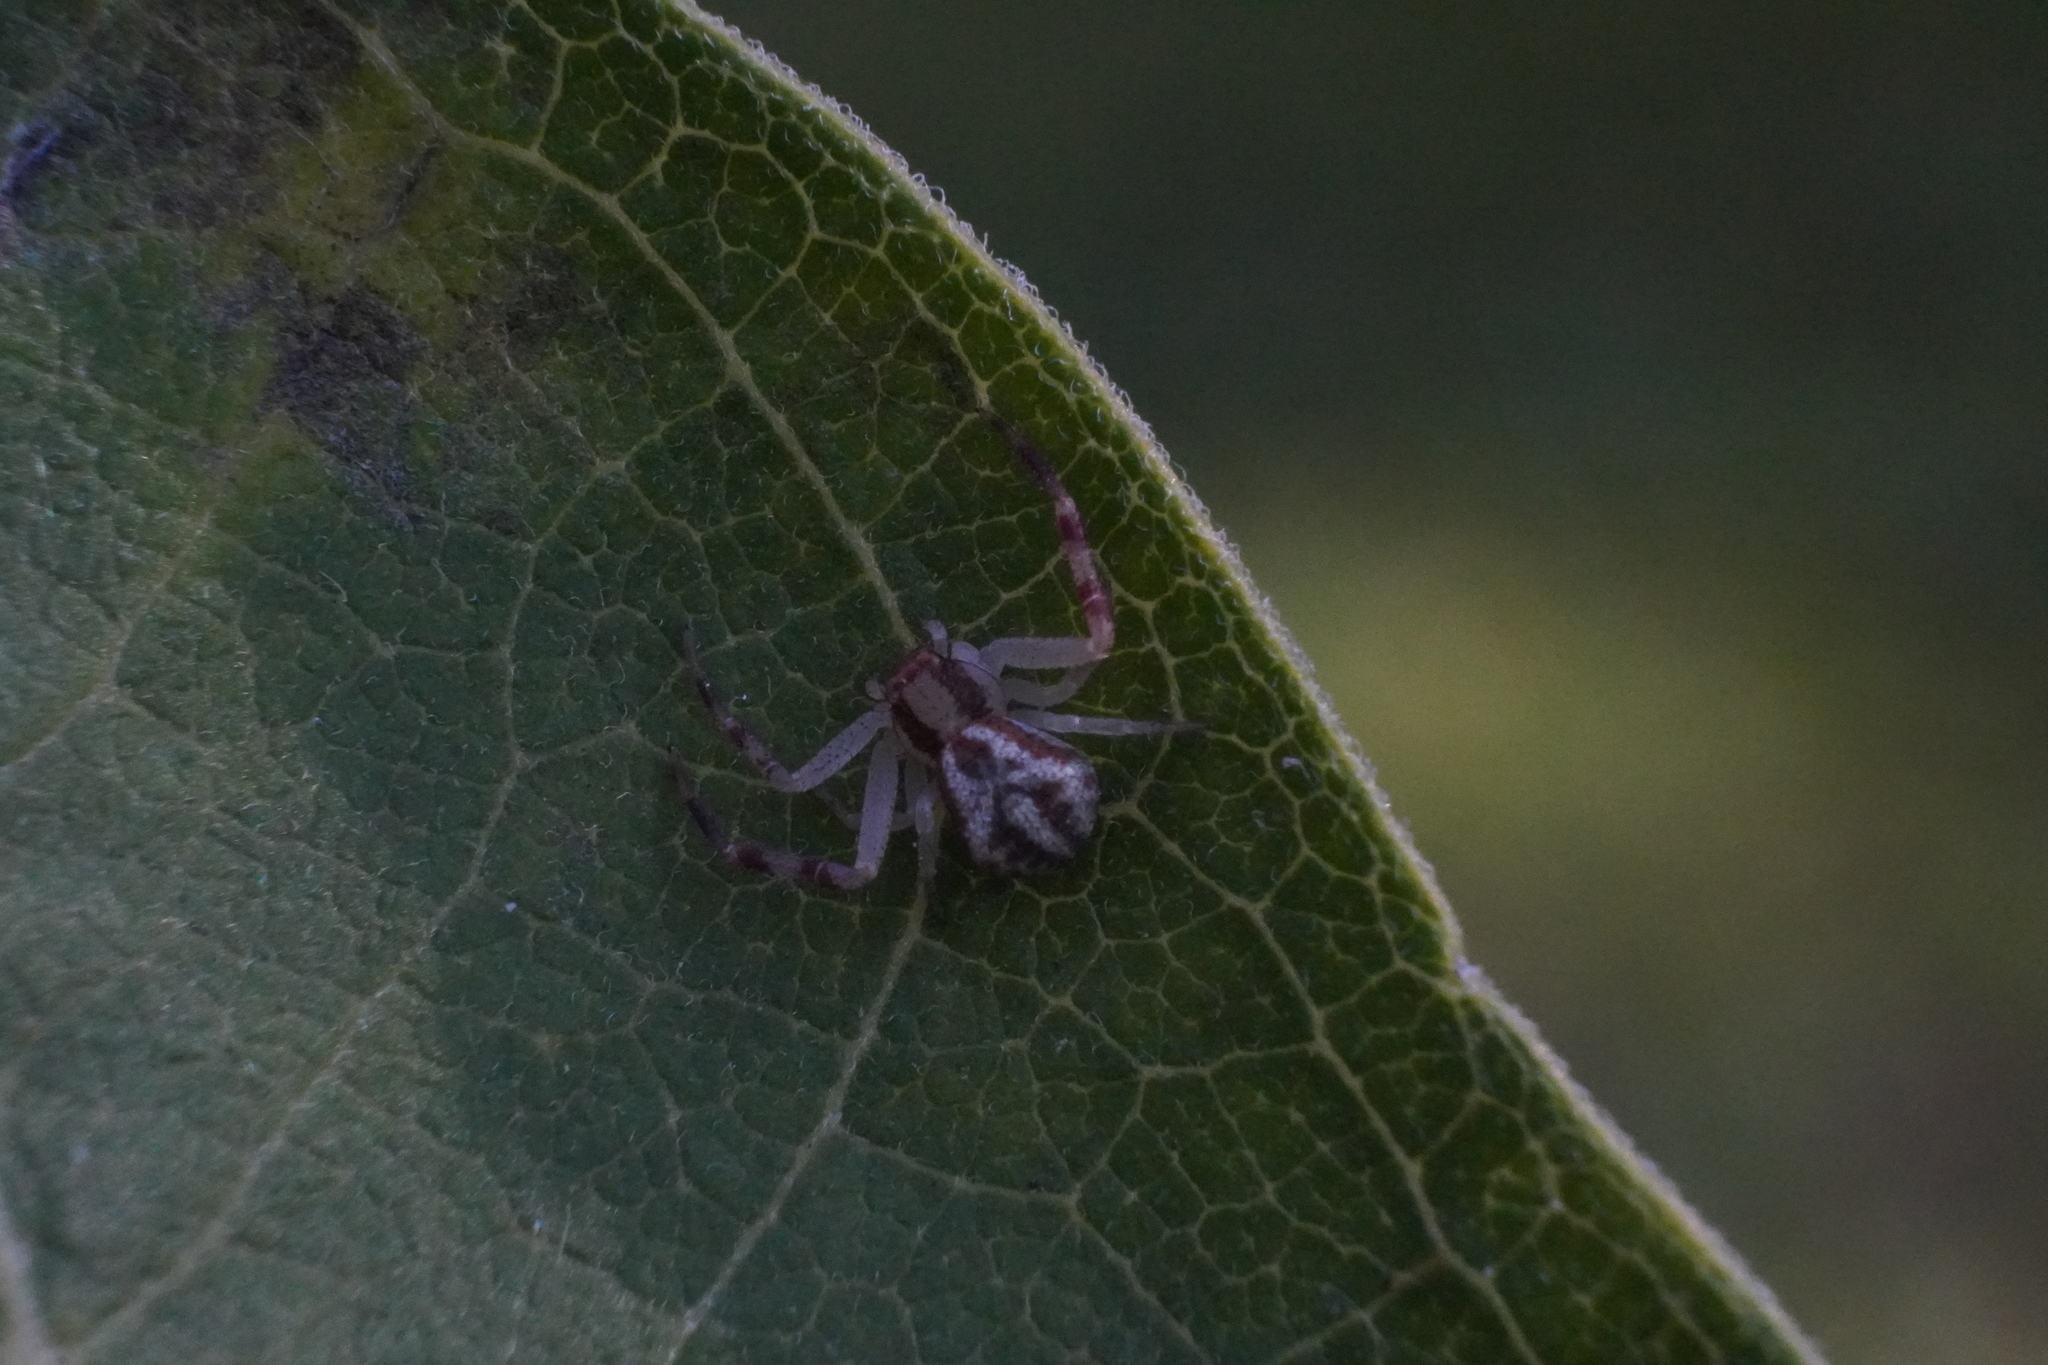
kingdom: Animalia
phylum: Arthropoda
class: Arachnida
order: Araneae
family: Thomisidae
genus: Mecaphesa
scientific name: Mecaphesa asperata
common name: Crab spiders
